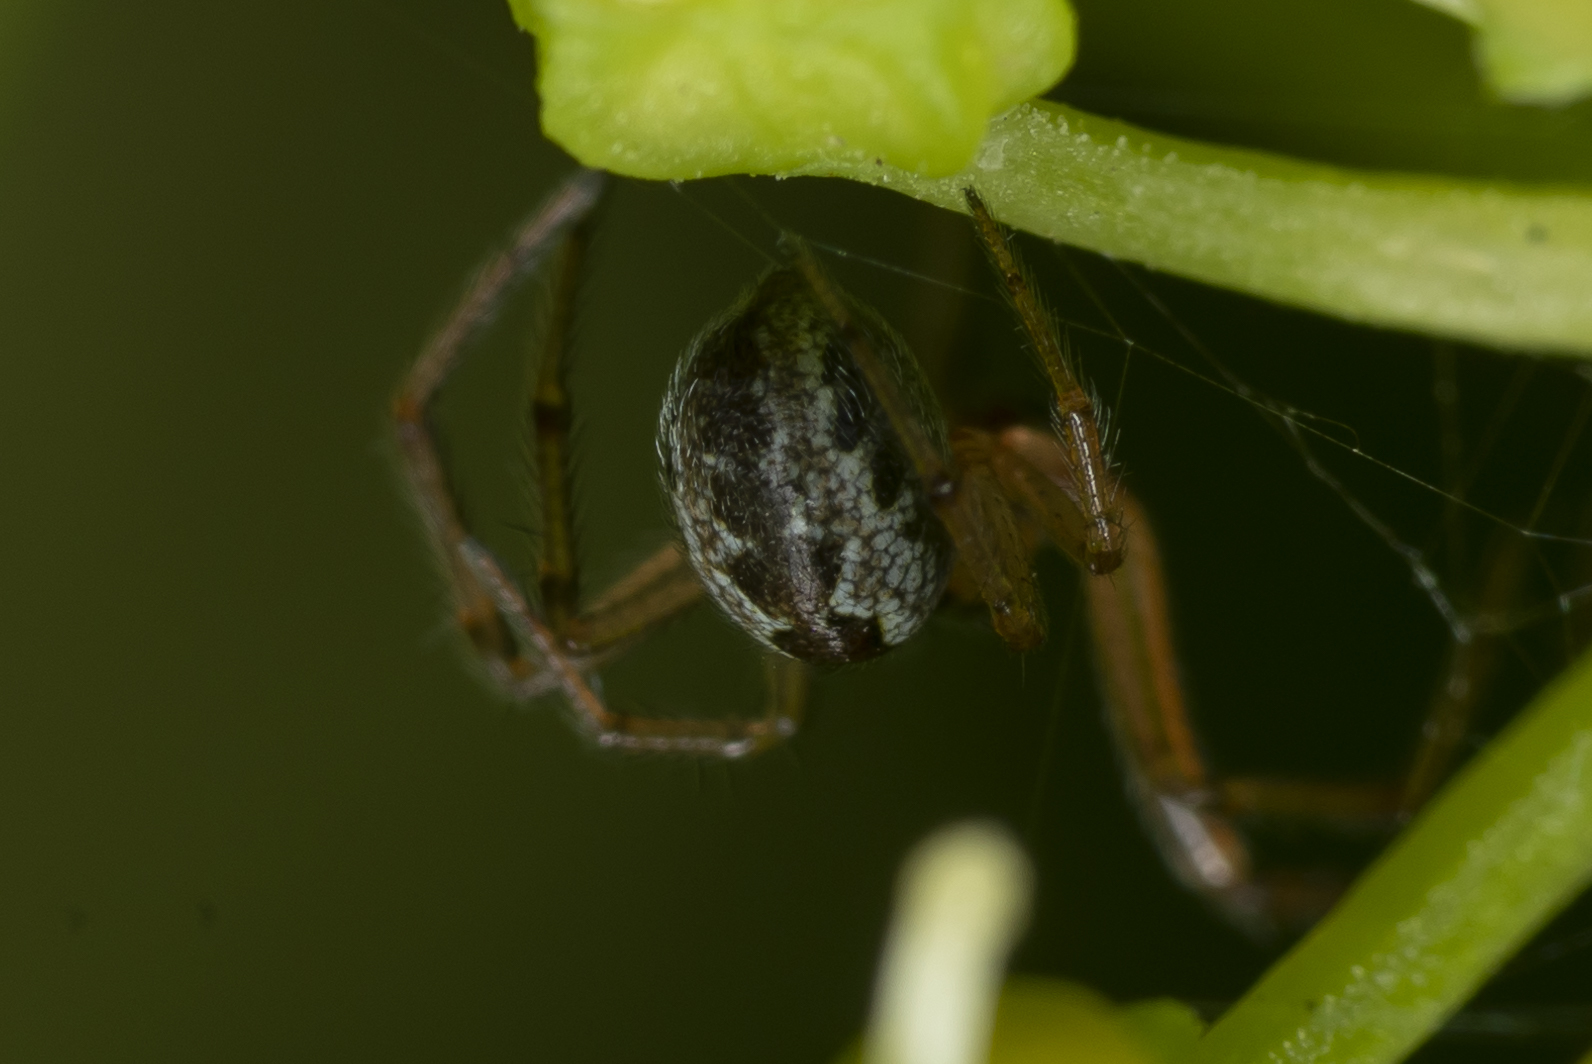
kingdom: Animalia
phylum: Arthropoda
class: Arachnida
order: Araneae
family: Theridiidae
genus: Kochiura
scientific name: Kochiura aulica
